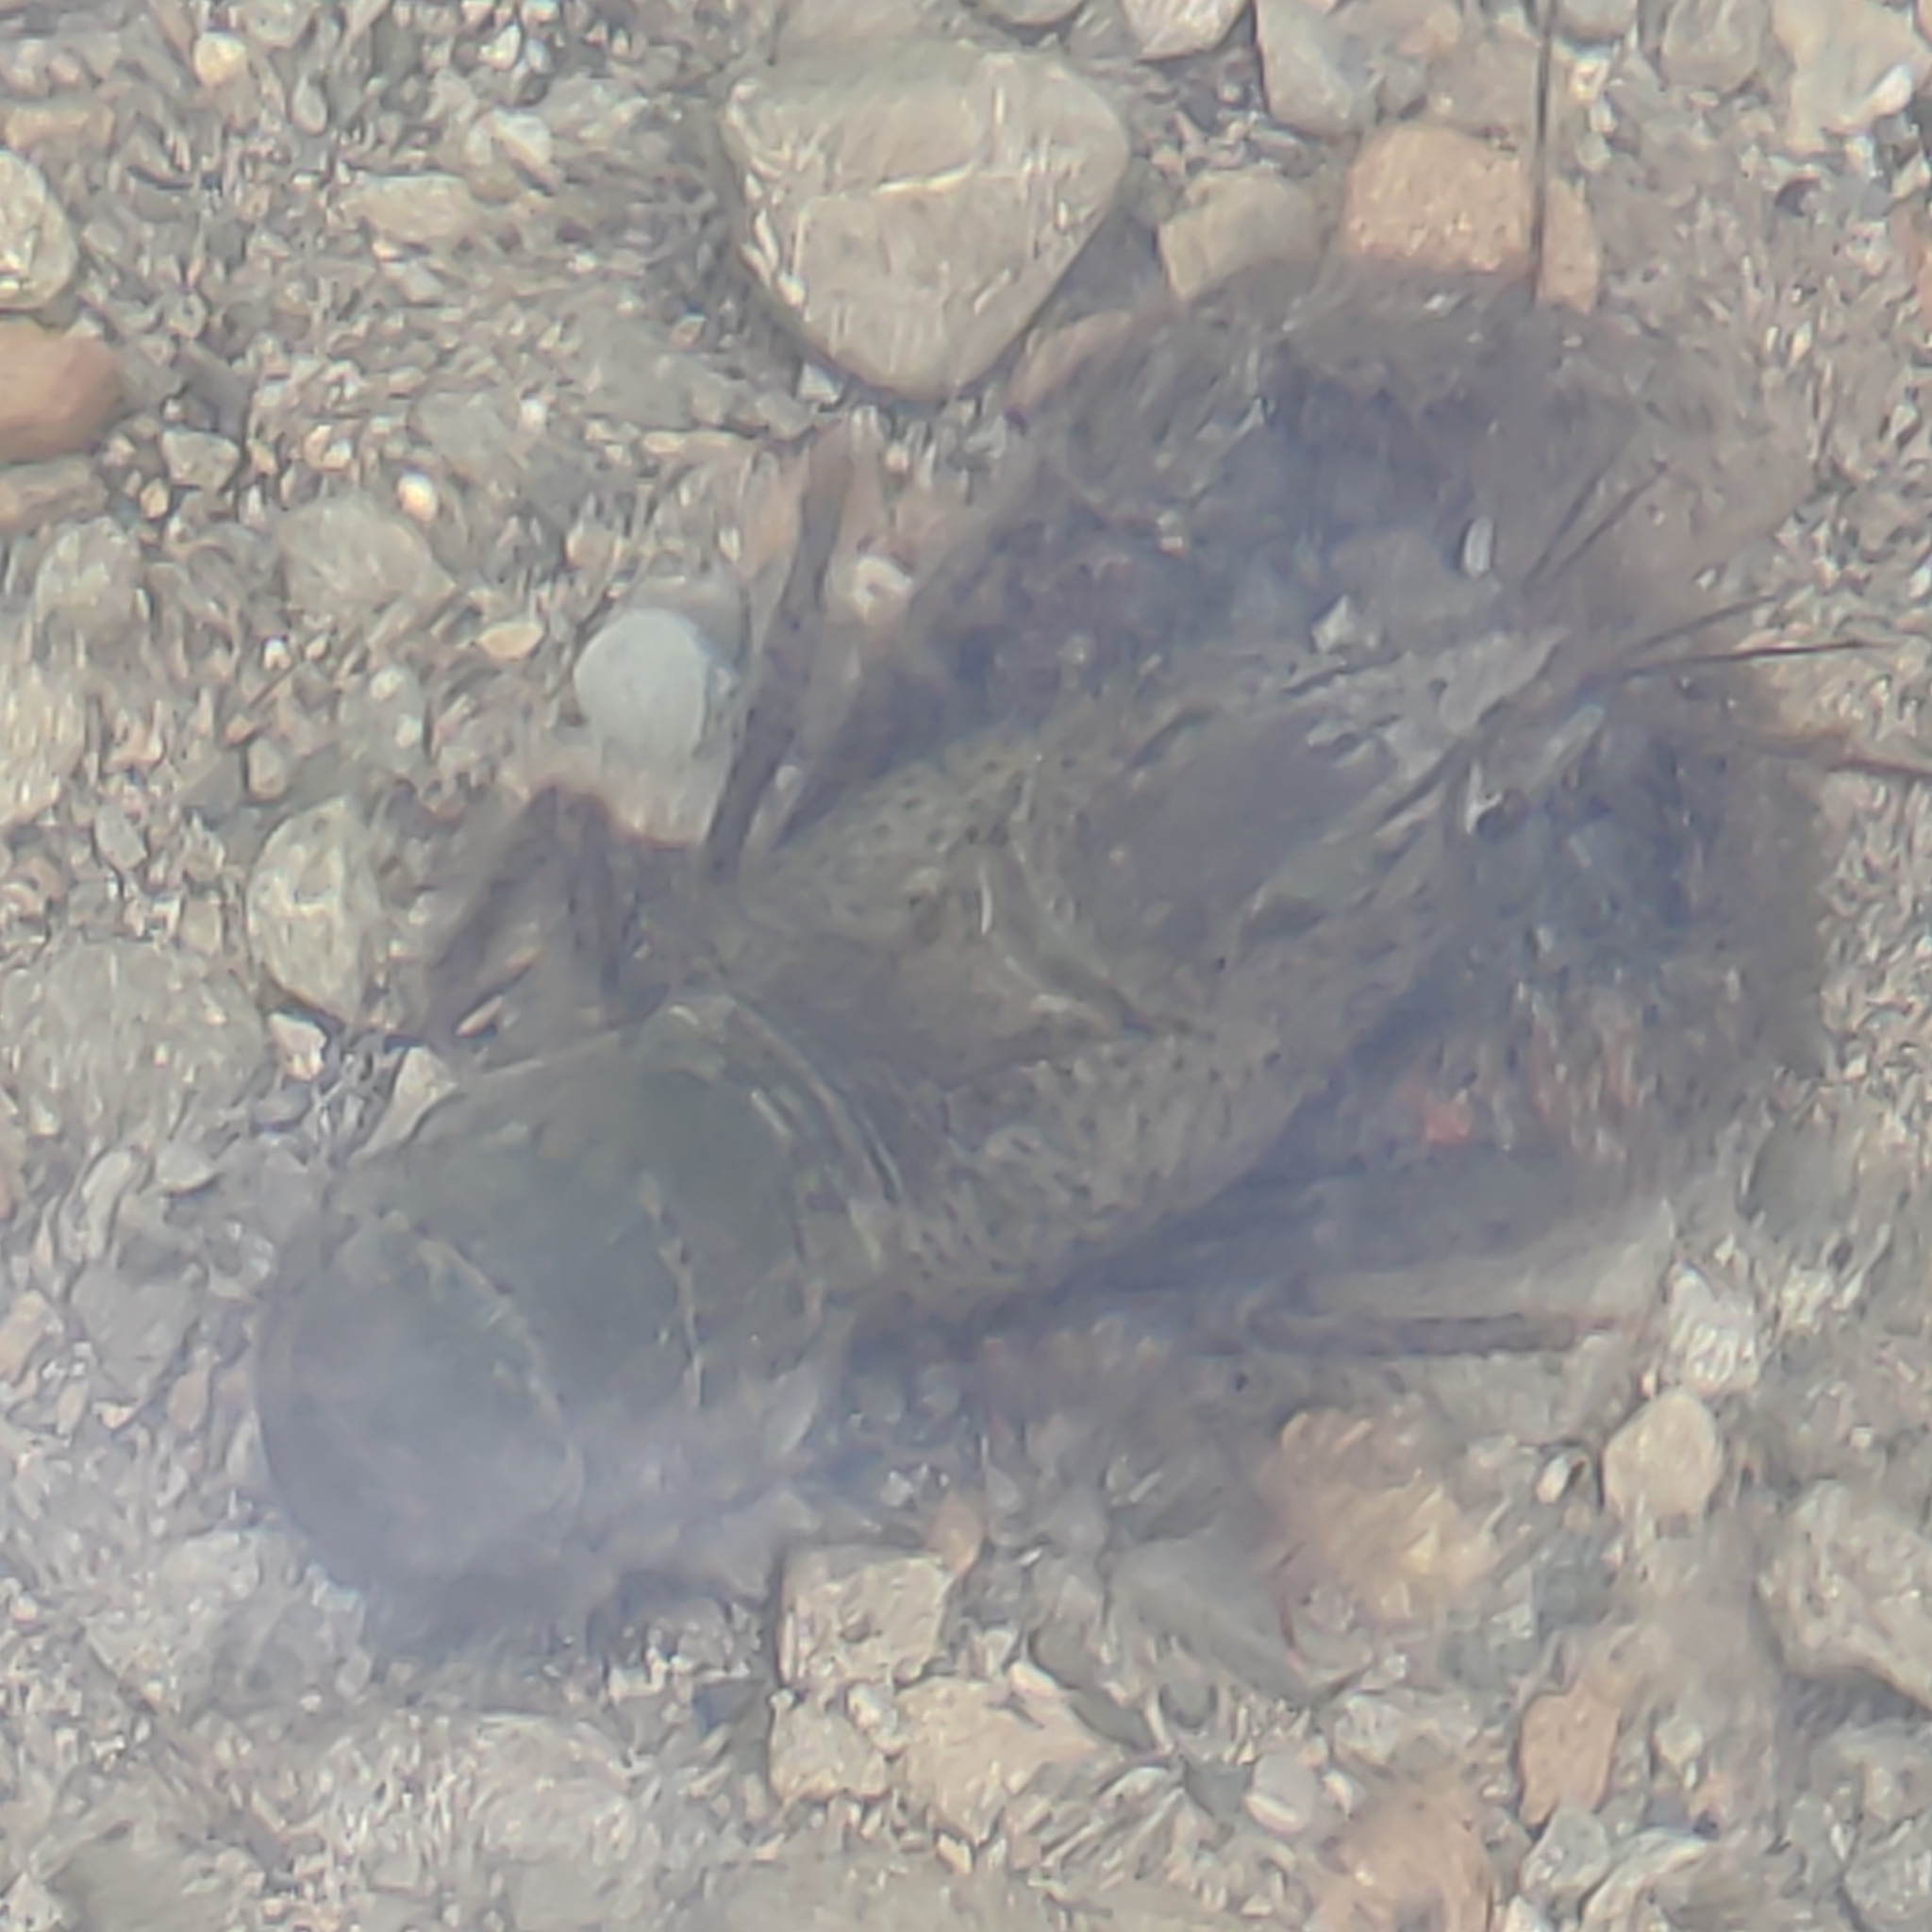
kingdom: Animalia
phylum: Arthropoda
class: Malacostraca
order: Decapoda
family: Parastacidae
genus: Paranephrops
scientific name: Paranephrops zealandicus
